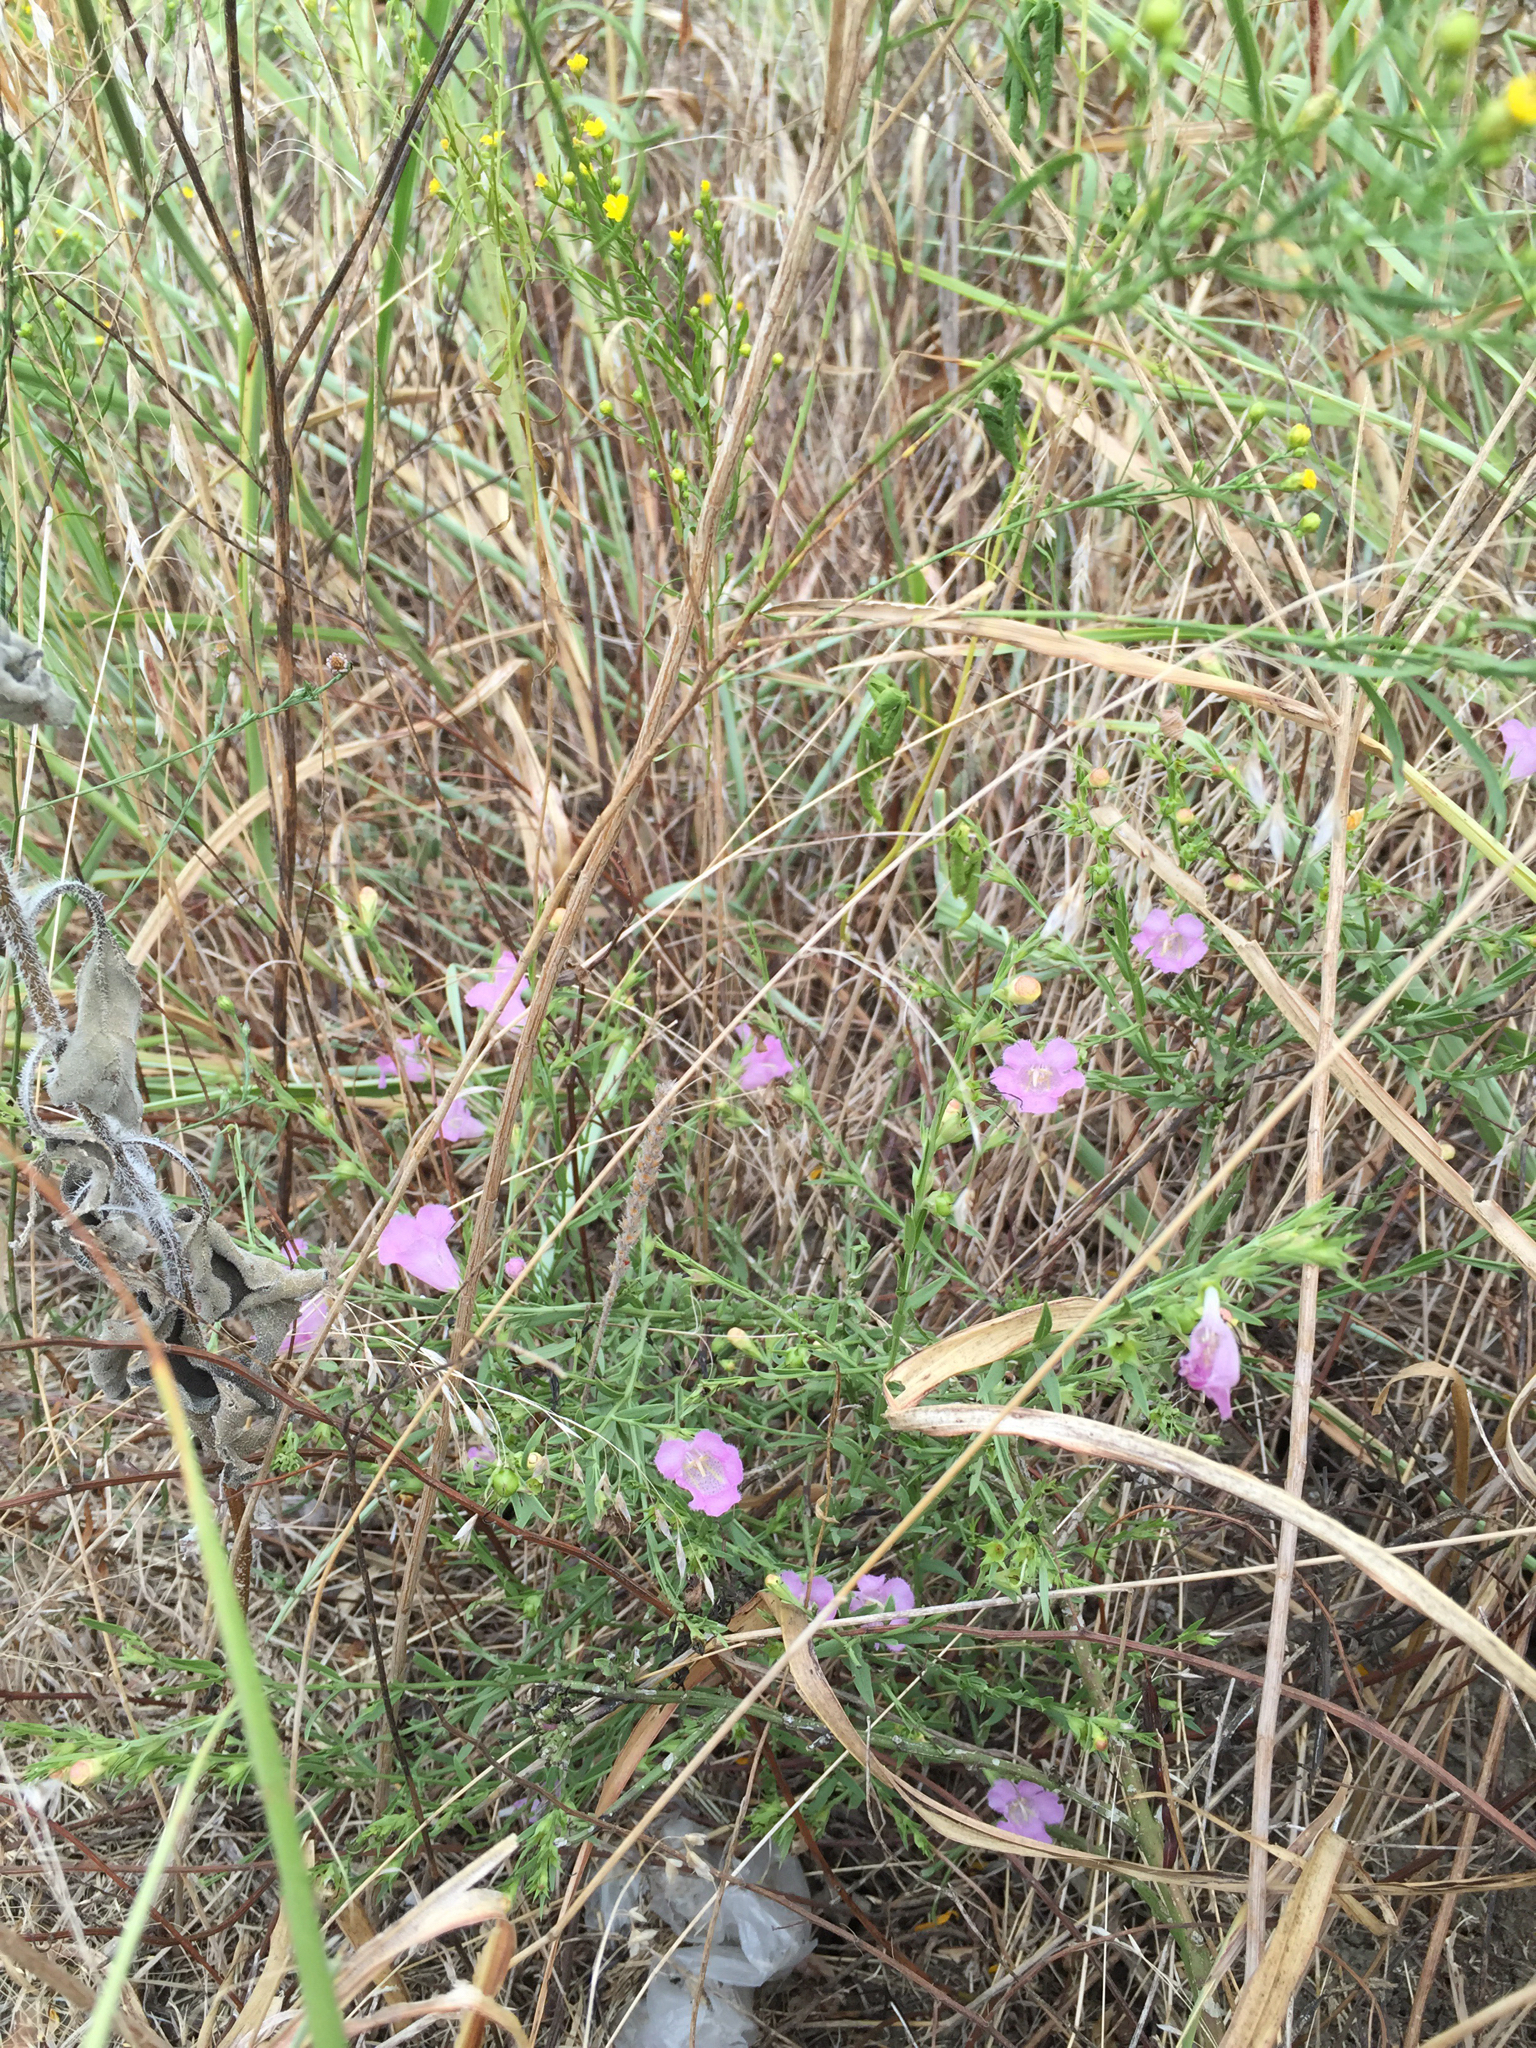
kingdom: Plantae
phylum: Tracheophyta
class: Magnoliopsida
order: Lamiales
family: Orobanchaceae
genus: Agalinis
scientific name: Agalinis heterophylla
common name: Prairie agalinis
